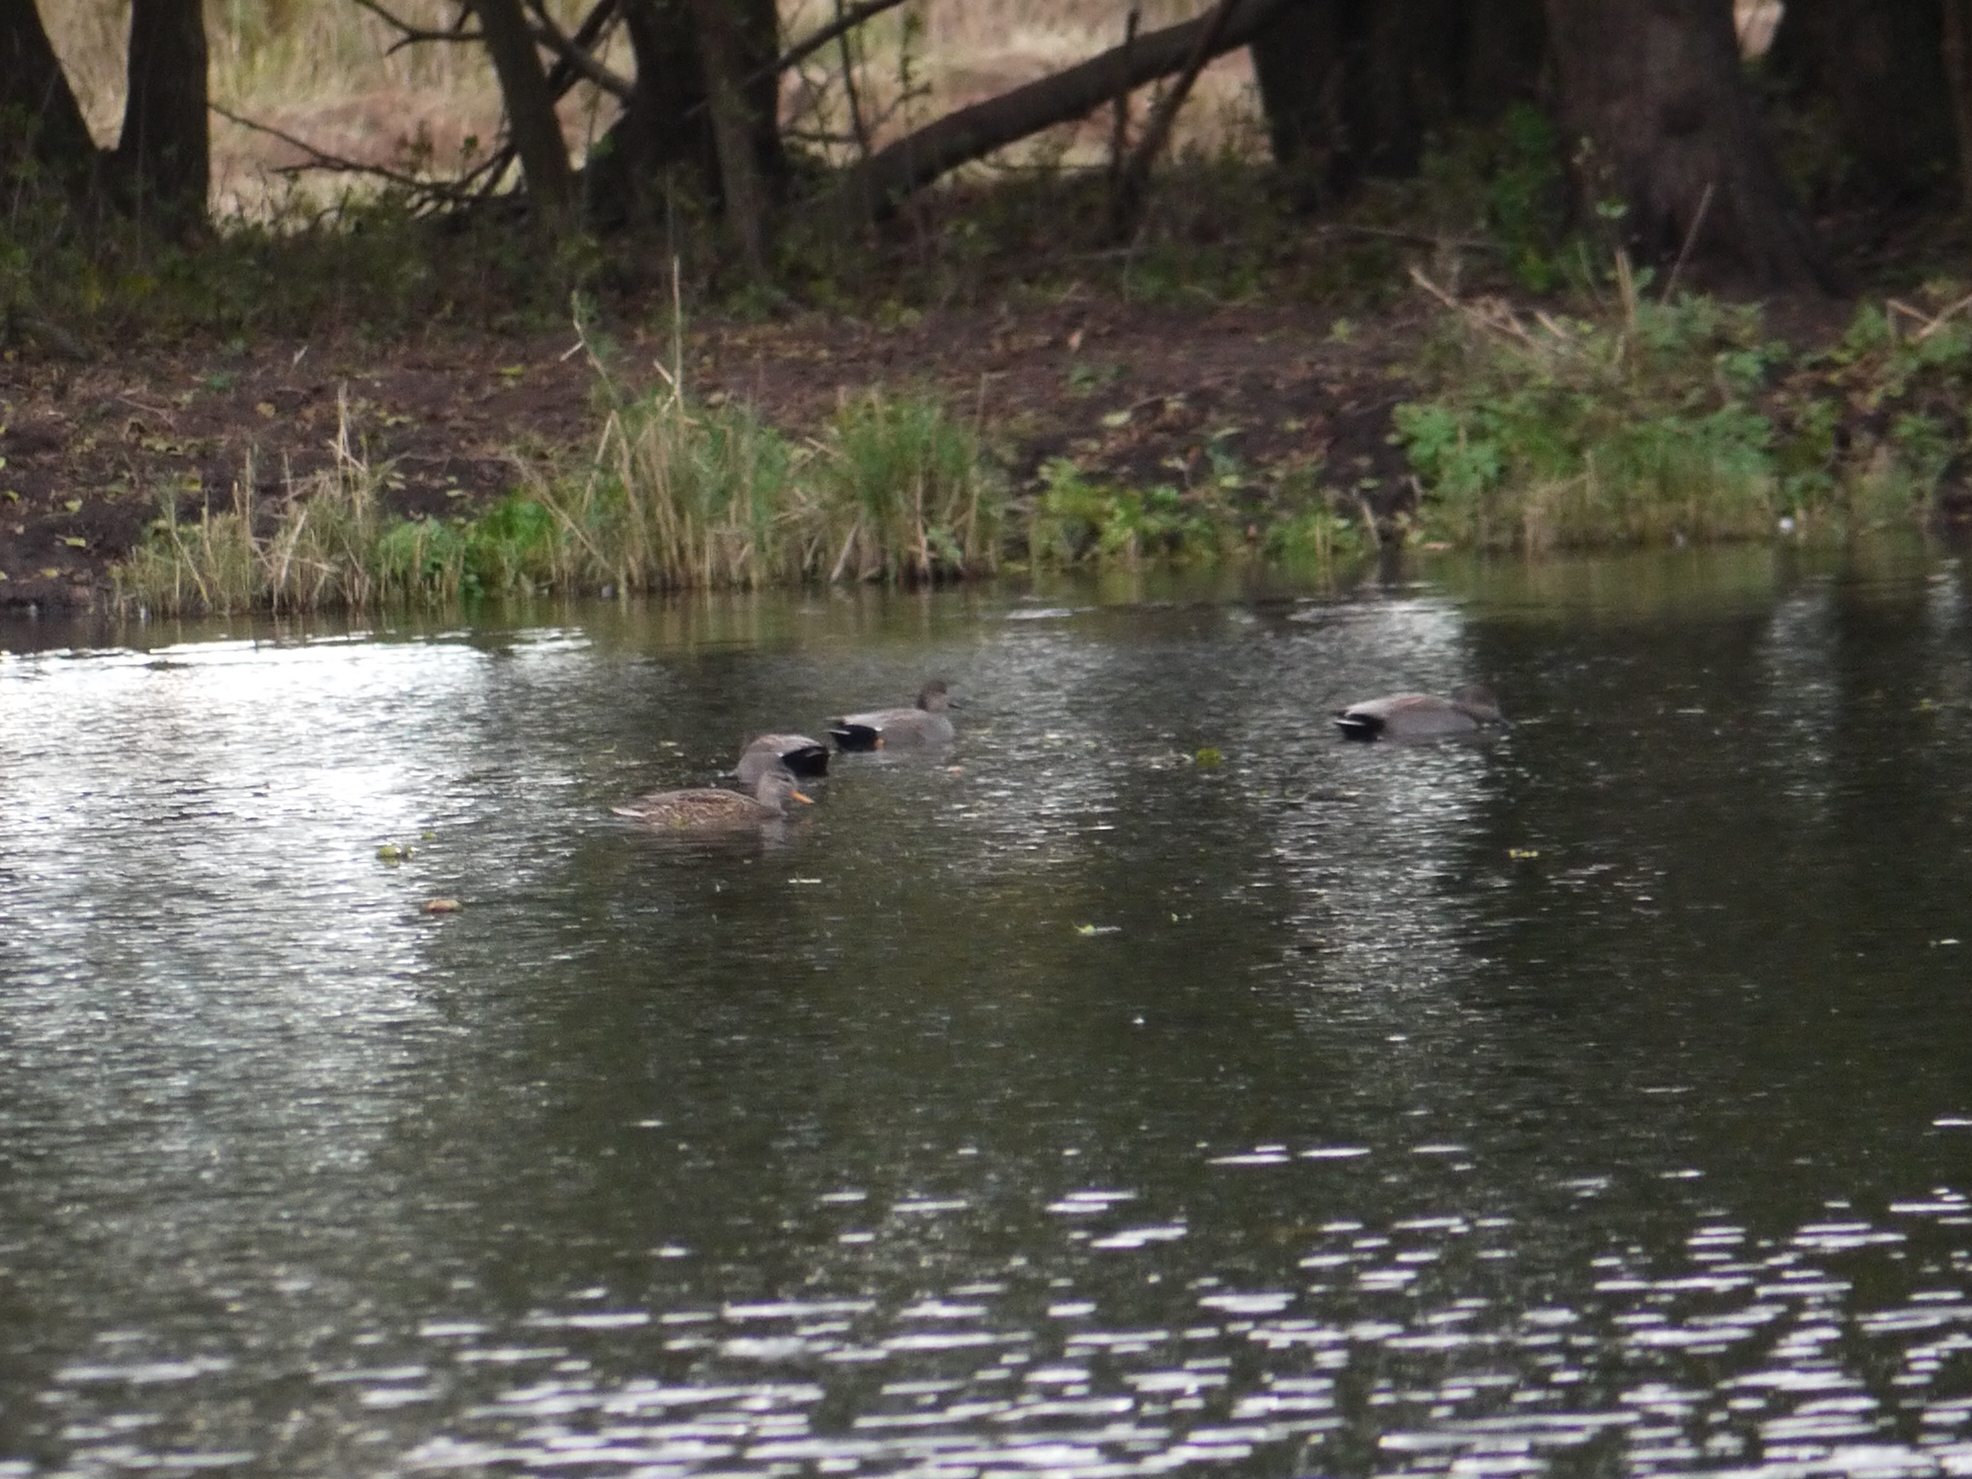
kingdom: Animalia
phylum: Chordata
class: Aves
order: Anseriformes
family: Anatidae
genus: Mareca
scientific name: Mareca strepera
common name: Gadwall
